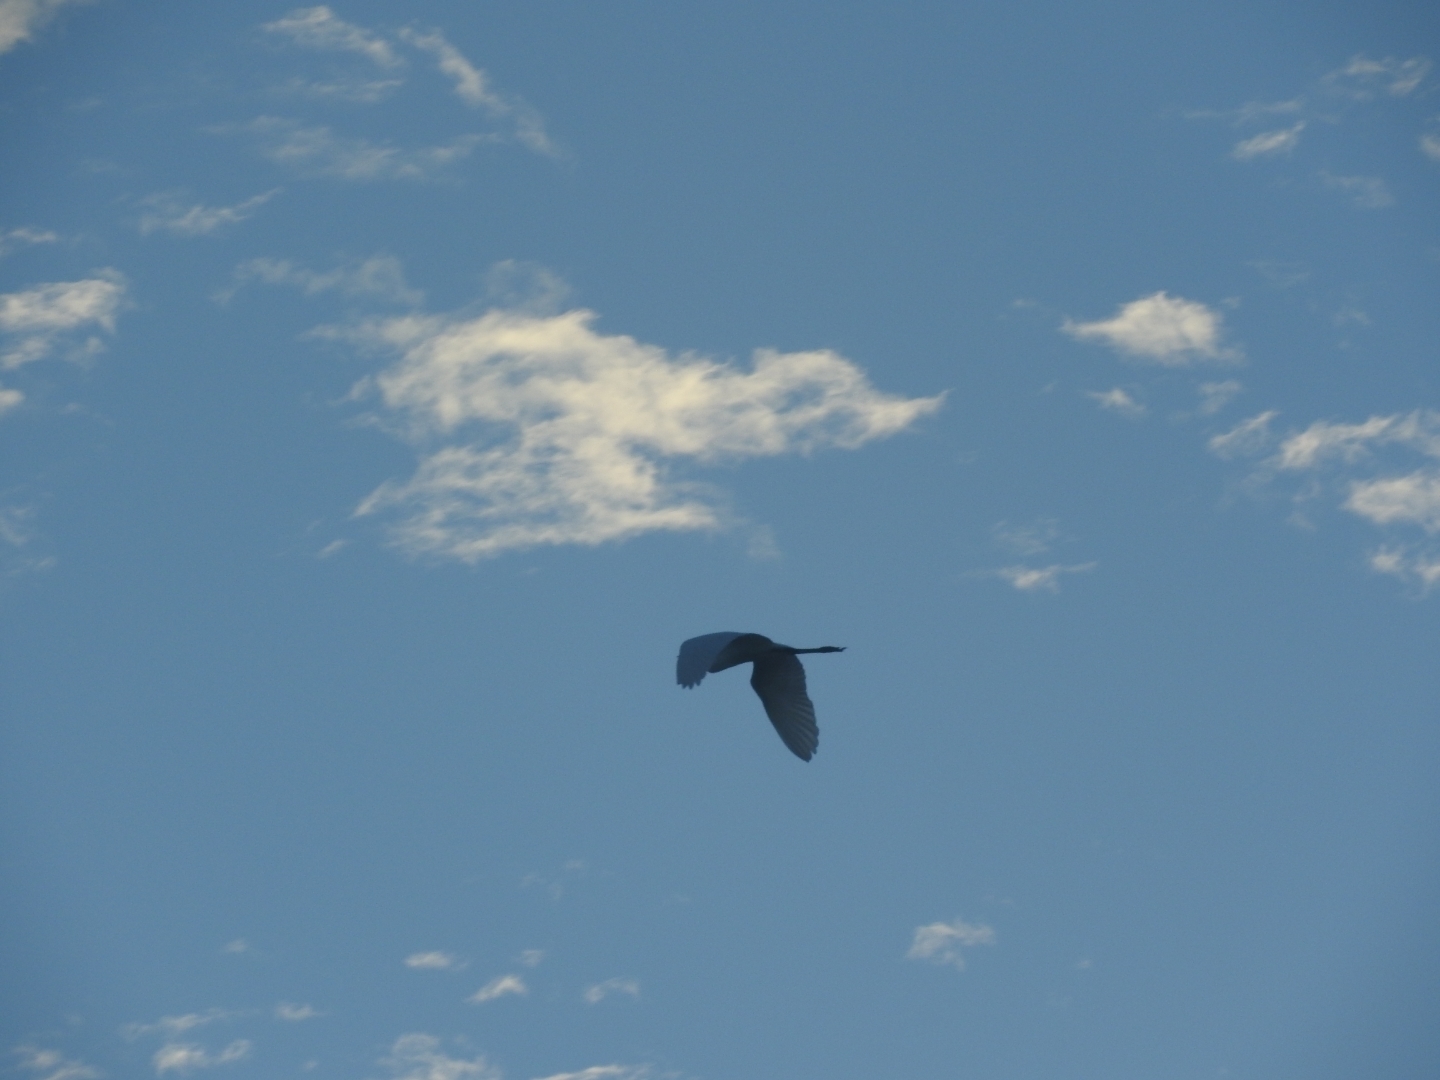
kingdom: Animalia
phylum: Chordata
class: Aves
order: Pelecaniformes
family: Ardeidae
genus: Ardea
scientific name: Ardea alba
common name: Great egret
